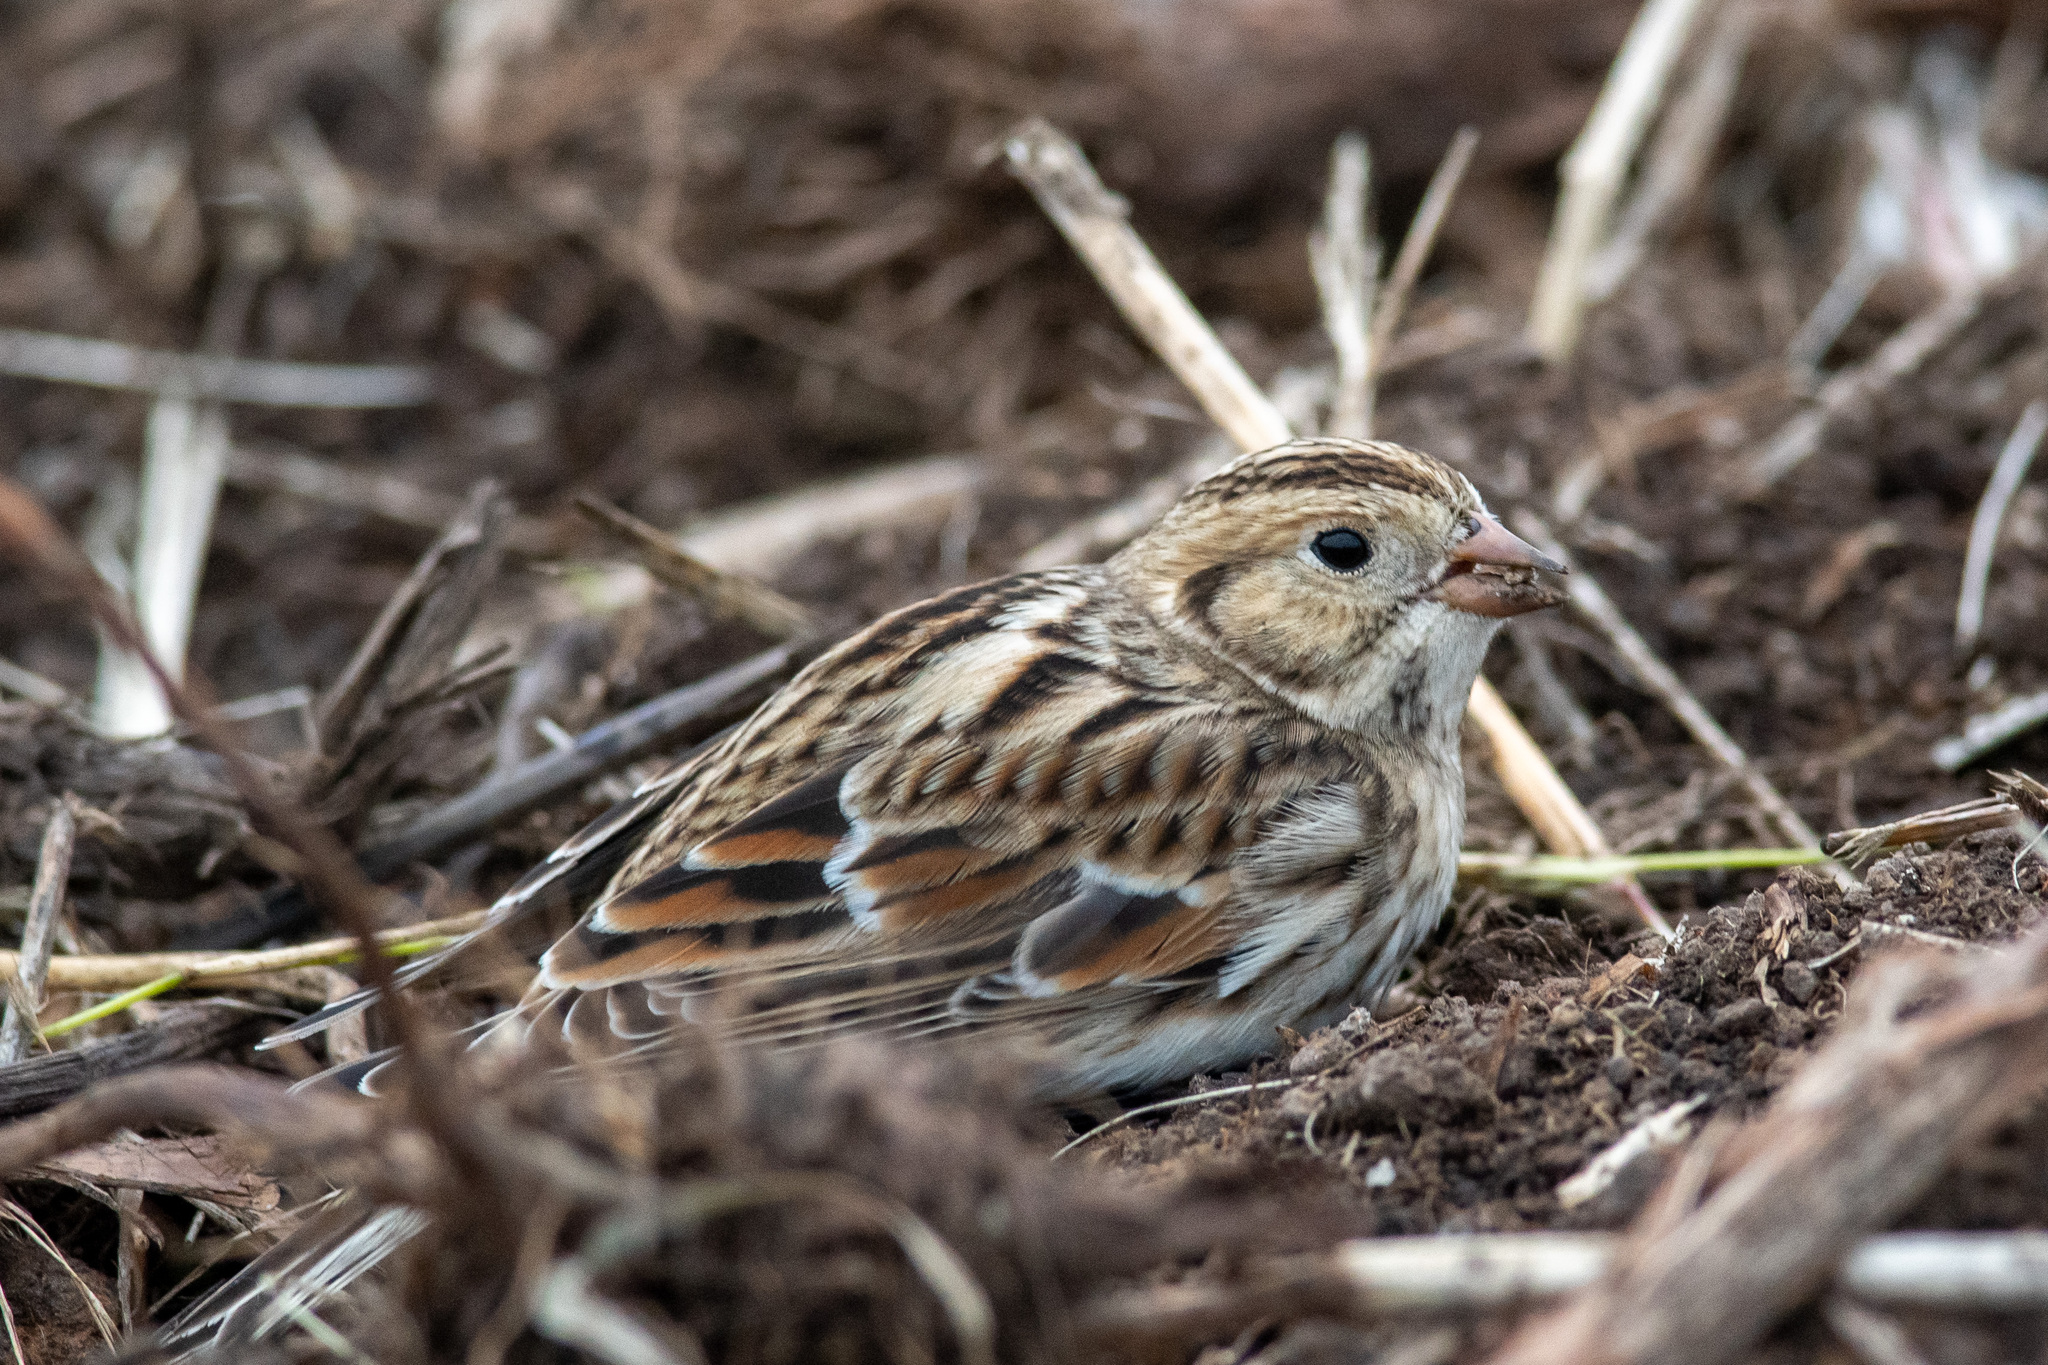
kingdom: Animalia
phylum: Chordata
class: Aves
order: Passeriformes
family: Calcariidae
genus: Calcarius
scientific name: Calcarius lapponicus
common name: Lapland longspur
